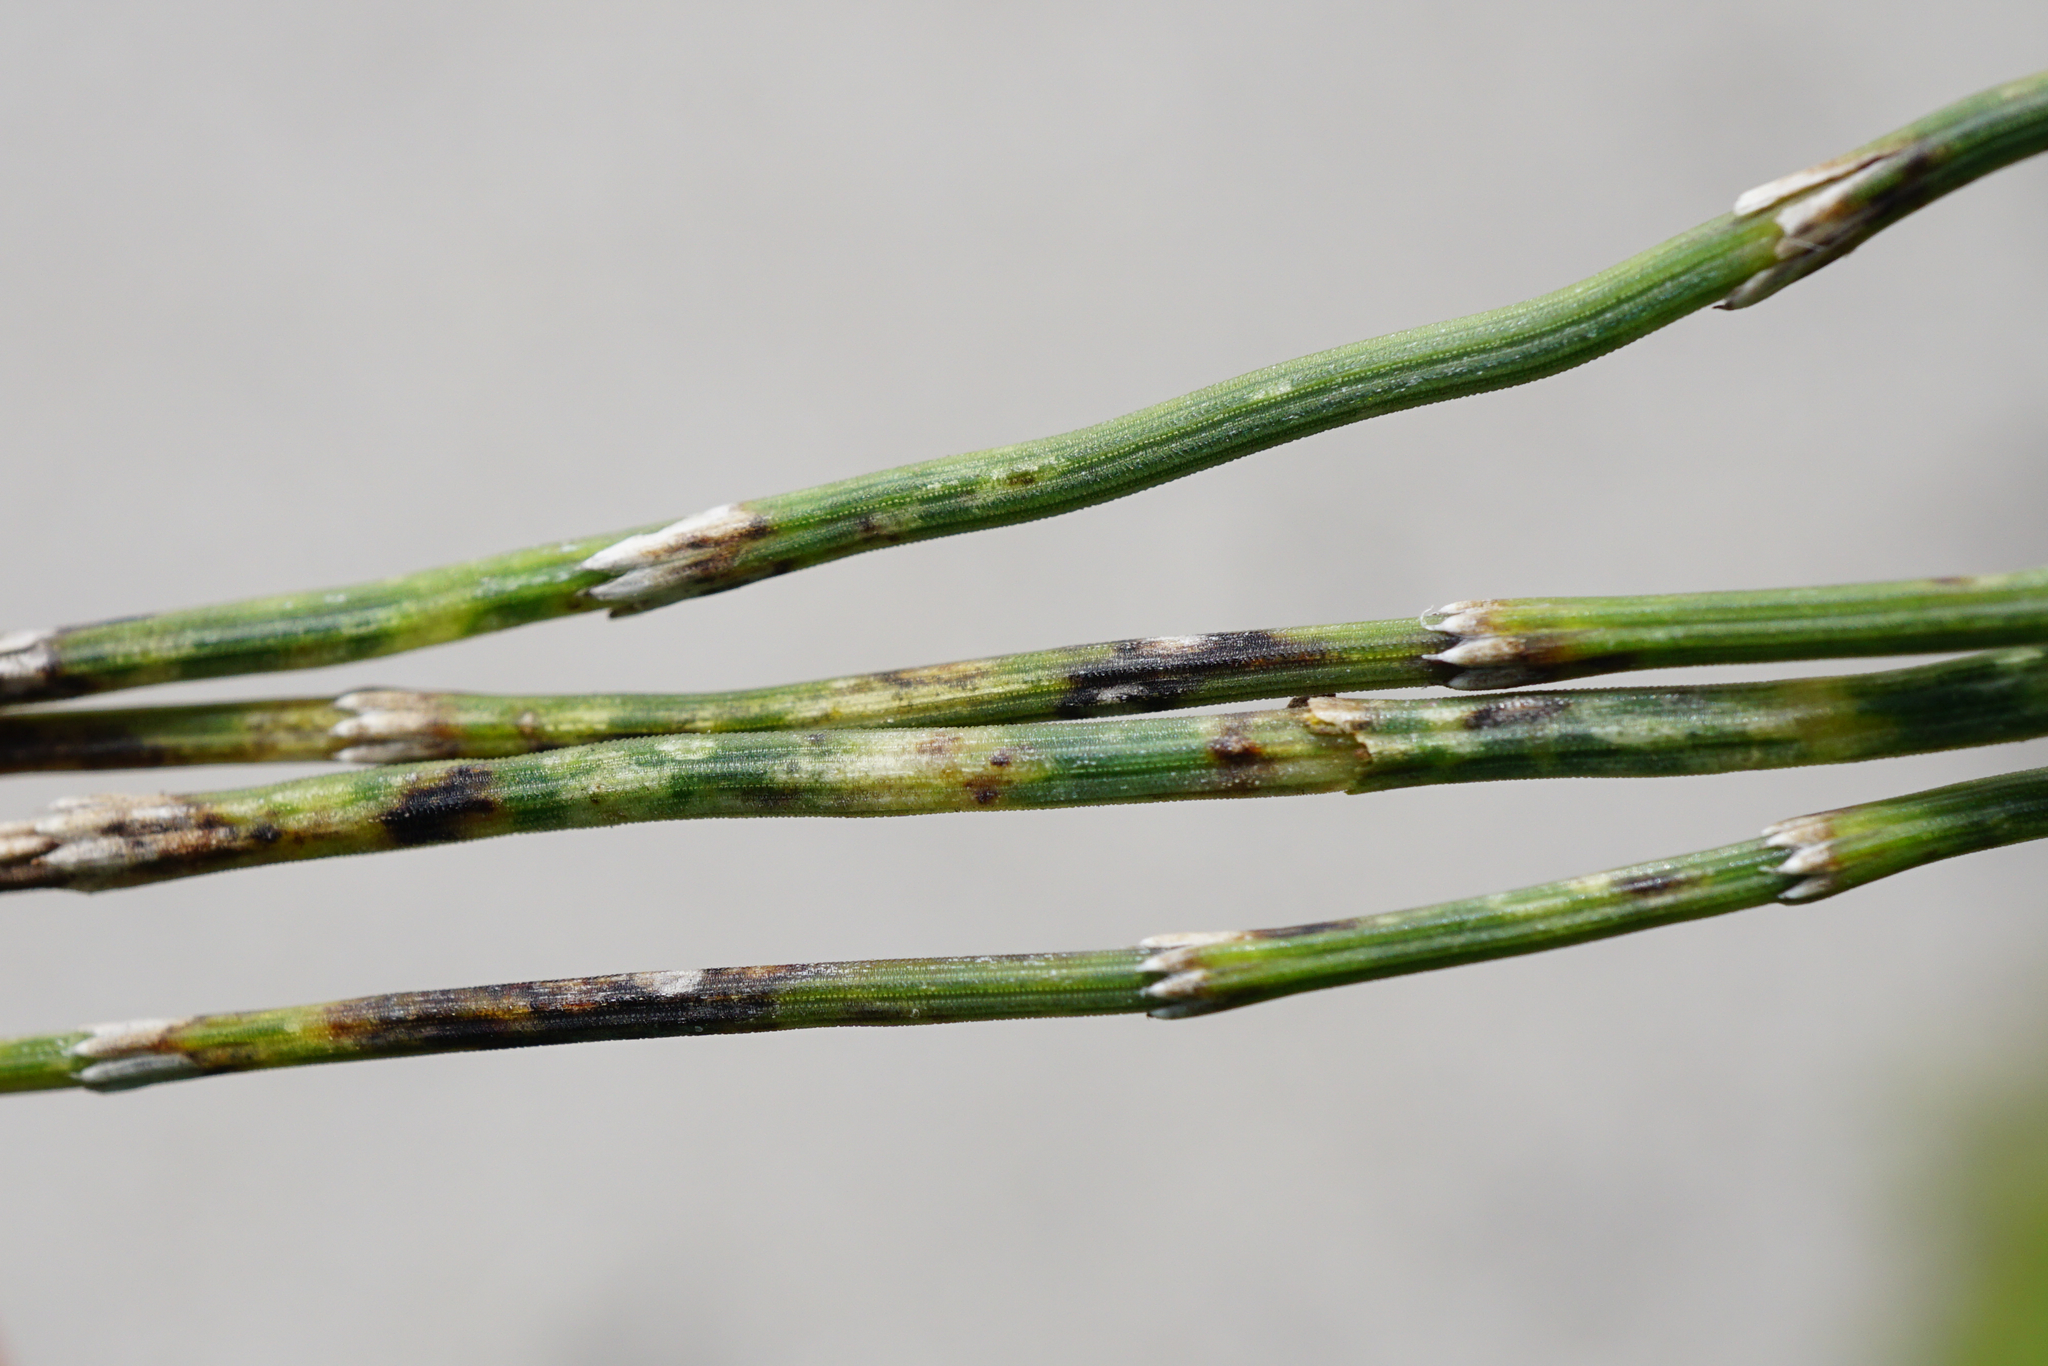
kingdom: Plantae
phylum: Tracheophyta
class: Polypodiopsida
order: Equisetales
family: Equisetaceae
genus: Equisetum
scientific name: Equisetum ramosissimum
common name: Branched horsetail
